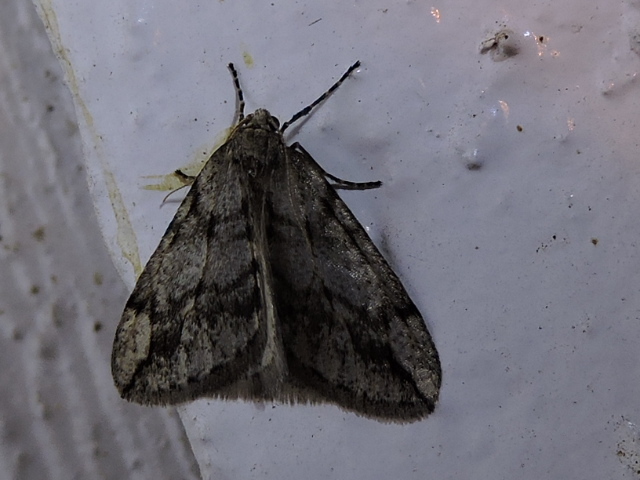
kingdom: Animalia
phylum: Arthropoda
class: Insecta
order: Lepidoptera
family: Geometridae
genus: Paleacrita
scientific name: Paleacrita vernata
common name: Spring cankerworm
